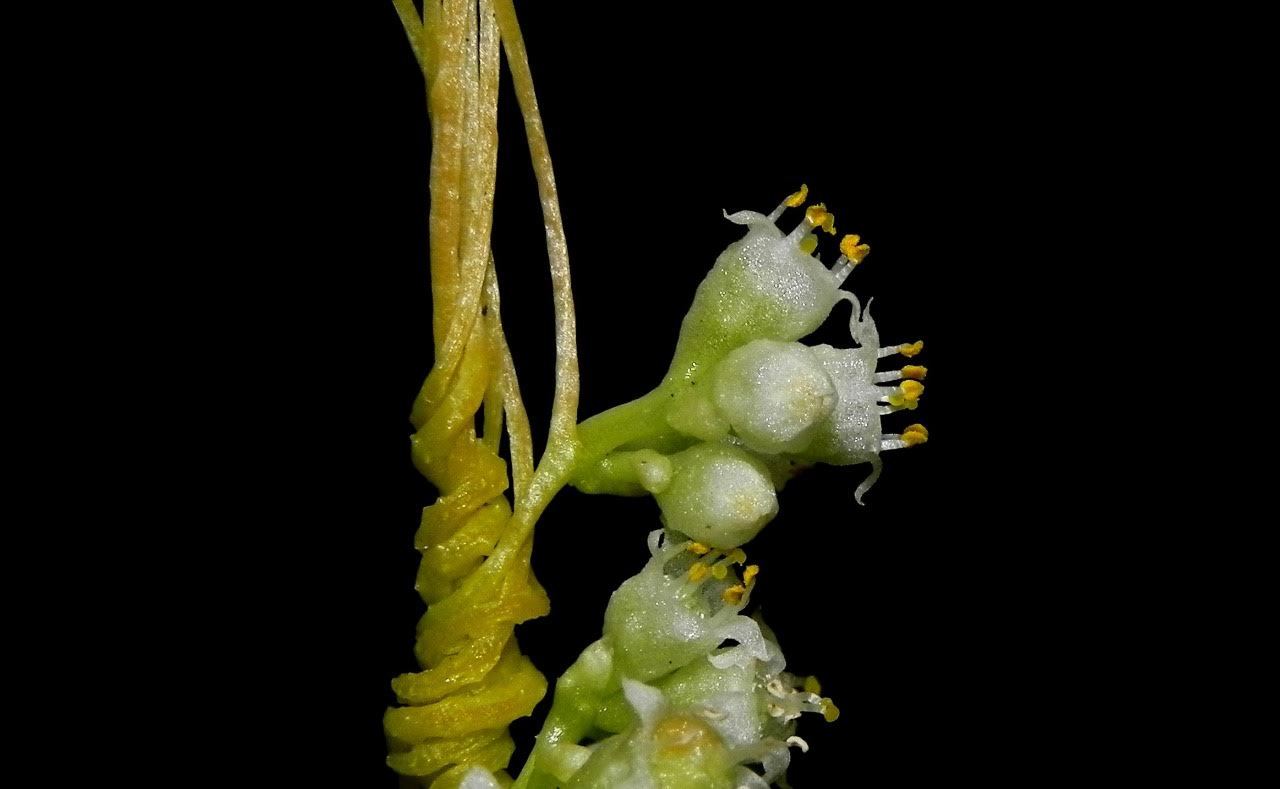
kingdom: Plantae
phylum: Tracheophyta
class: Magnoliopsida
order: Solanales
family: Convolvulaceae
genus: Cuscuta
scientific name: Cuscuta chinensis
